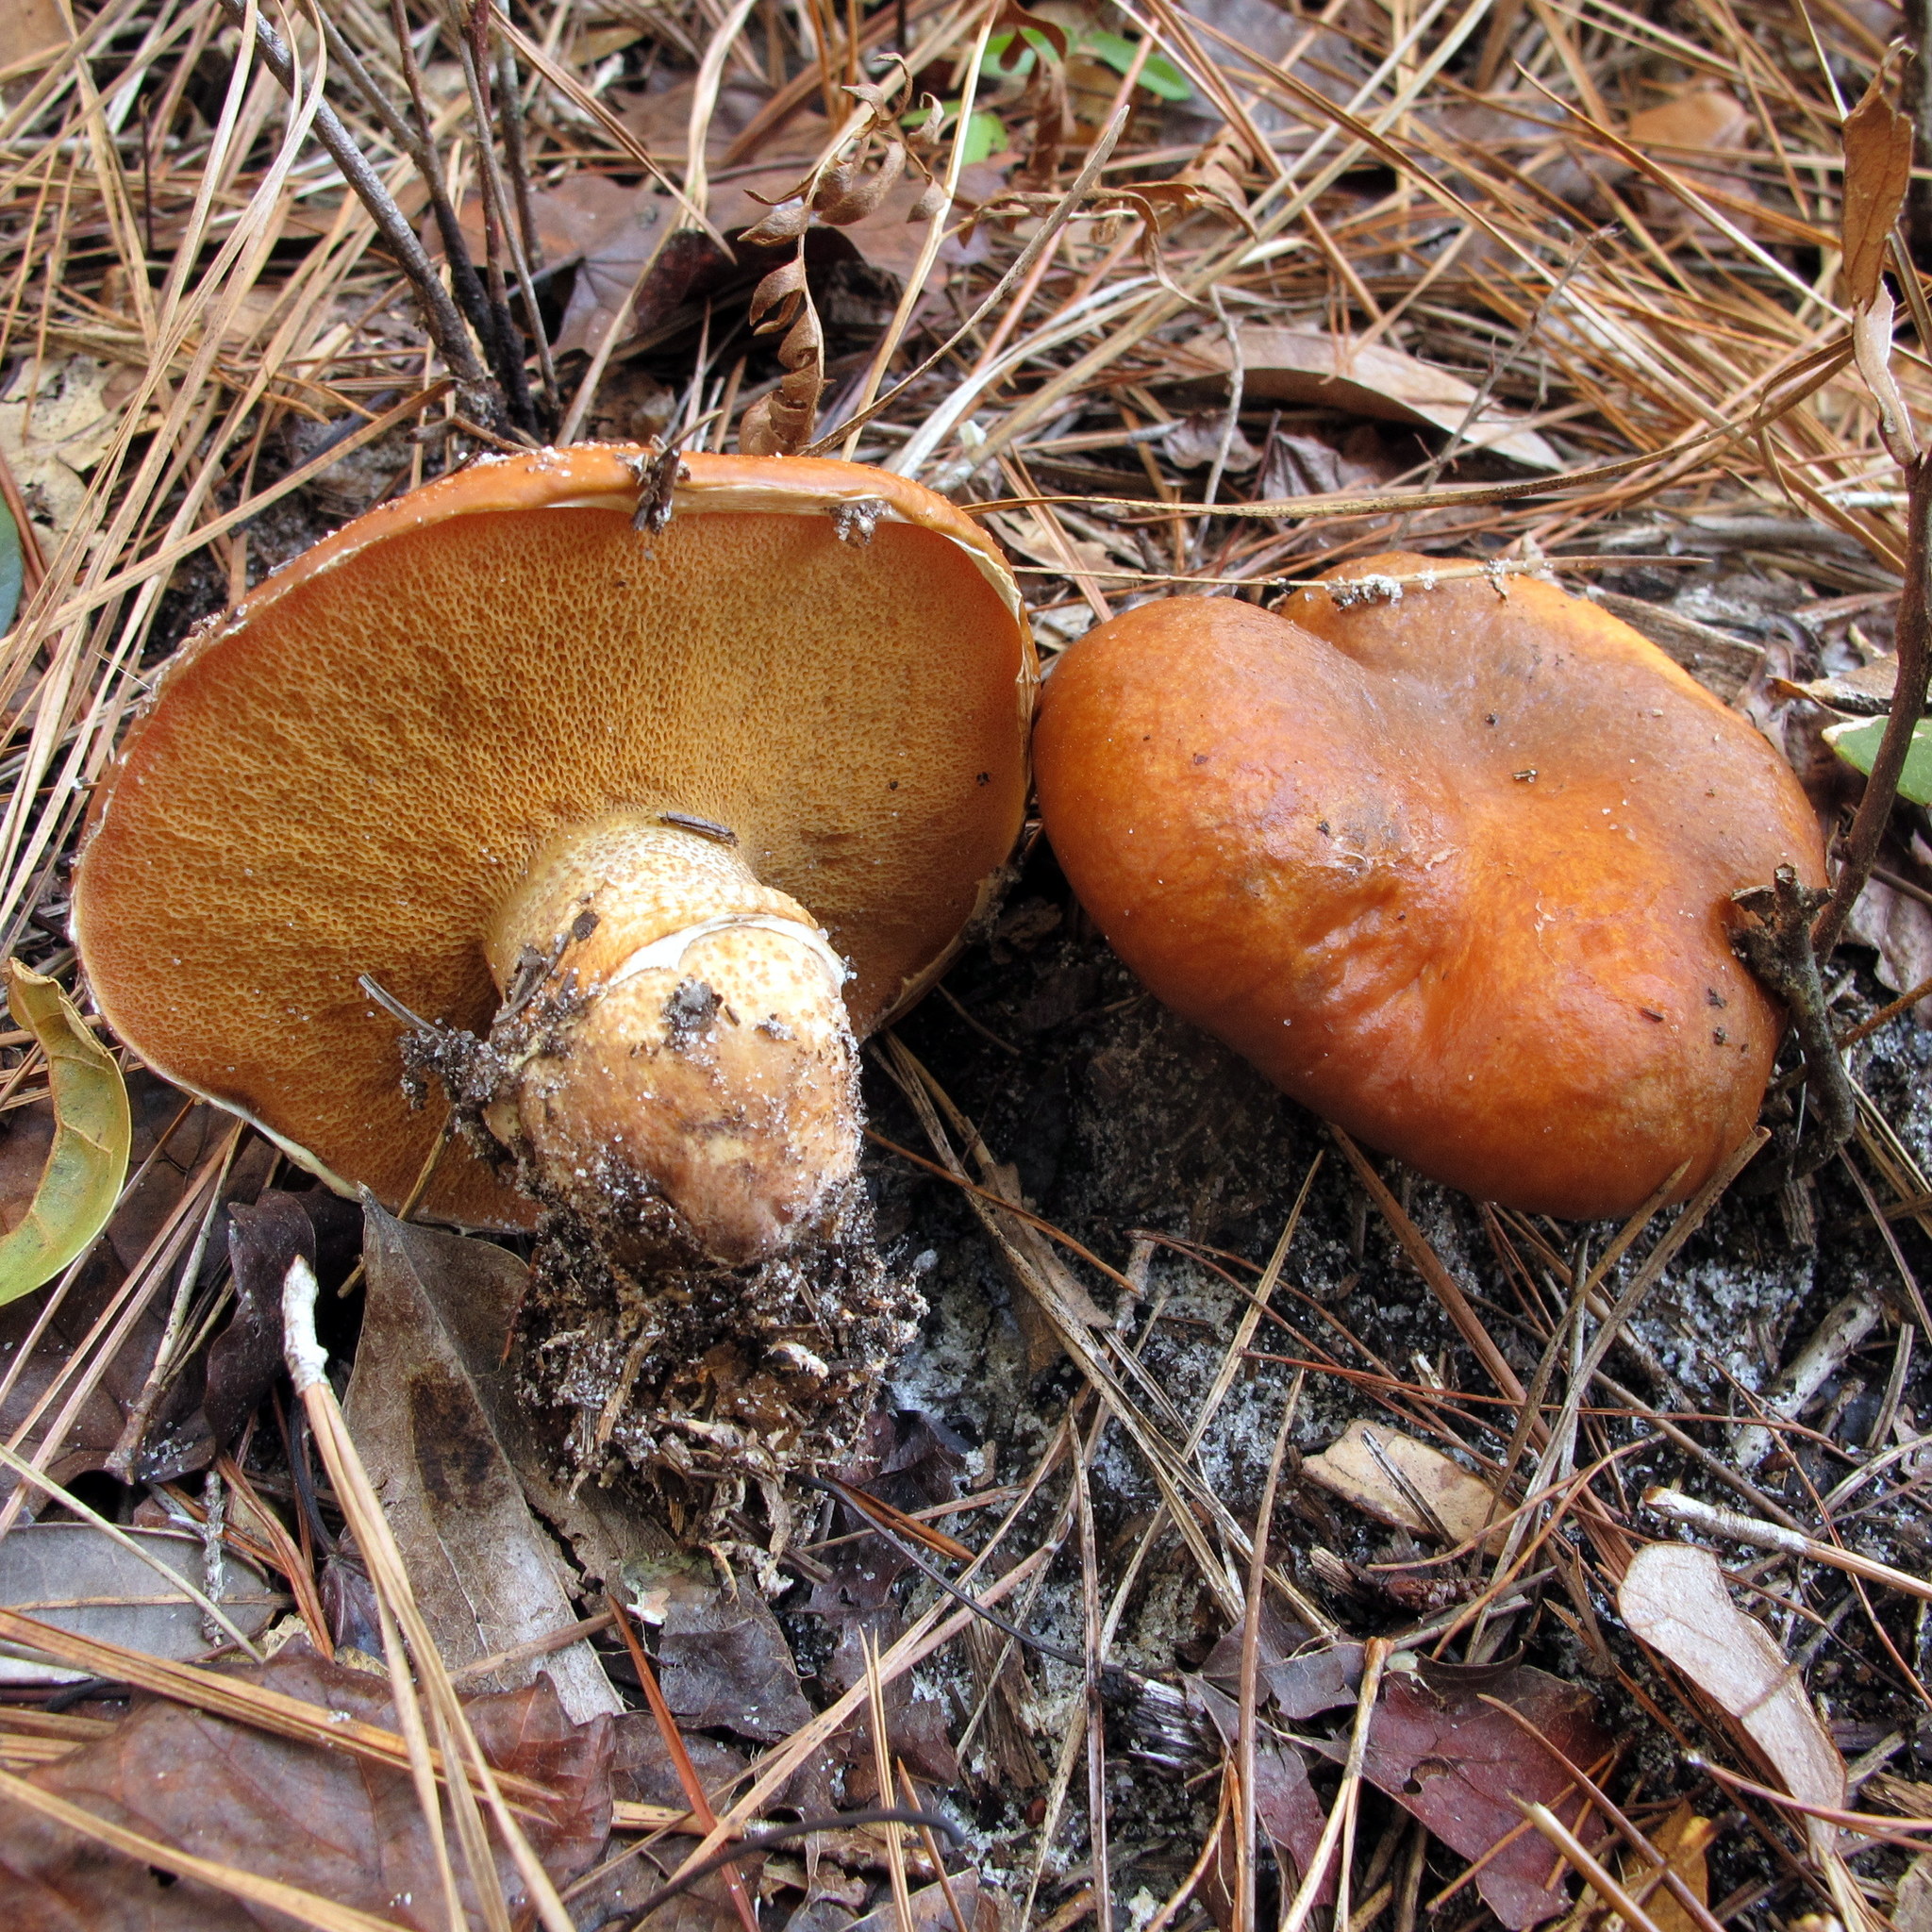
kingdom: Fungi
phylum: Basidiomycota
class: Agaricomycetes
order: Boletales
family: Suillaceae
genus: Suillus
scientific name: Suillus salmonicolor
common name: Slippery jill
